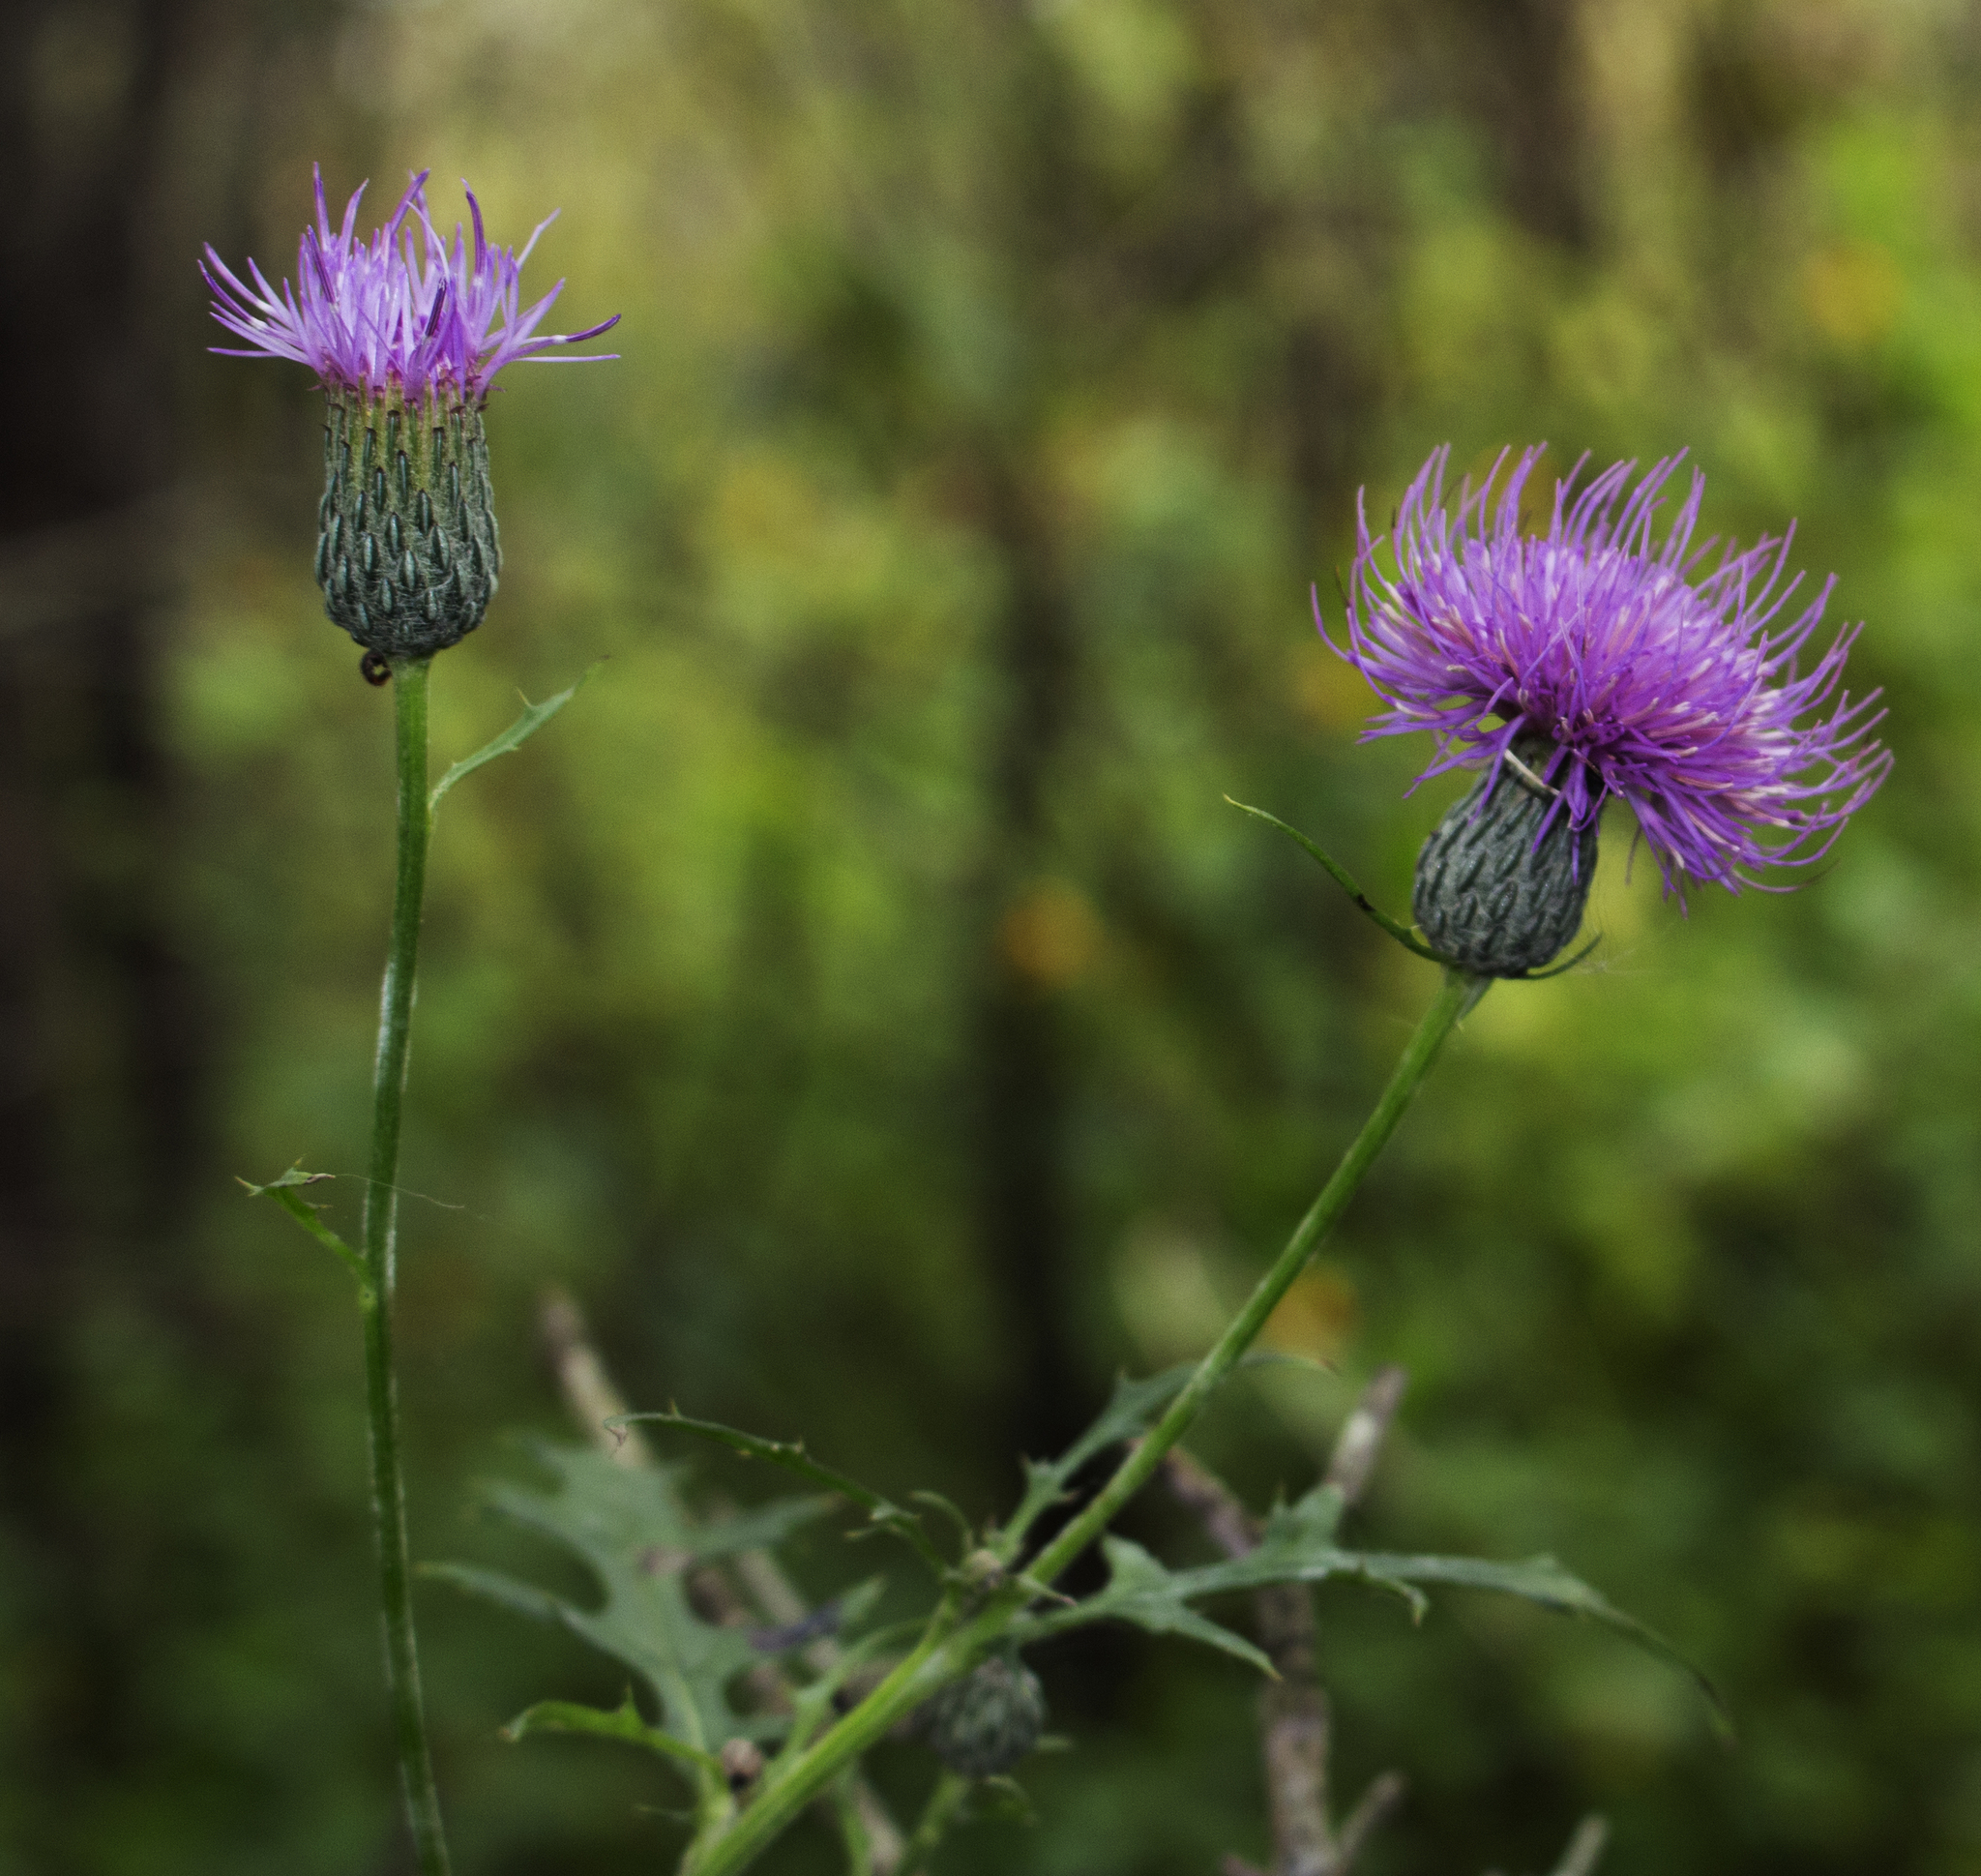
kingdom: Plantae
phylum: Tracheophyta
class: Magnoliopsida
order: Asterales
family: Asteraceae
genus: Cirsium
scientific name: Cirsium muticum
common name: Dunce-nettle
